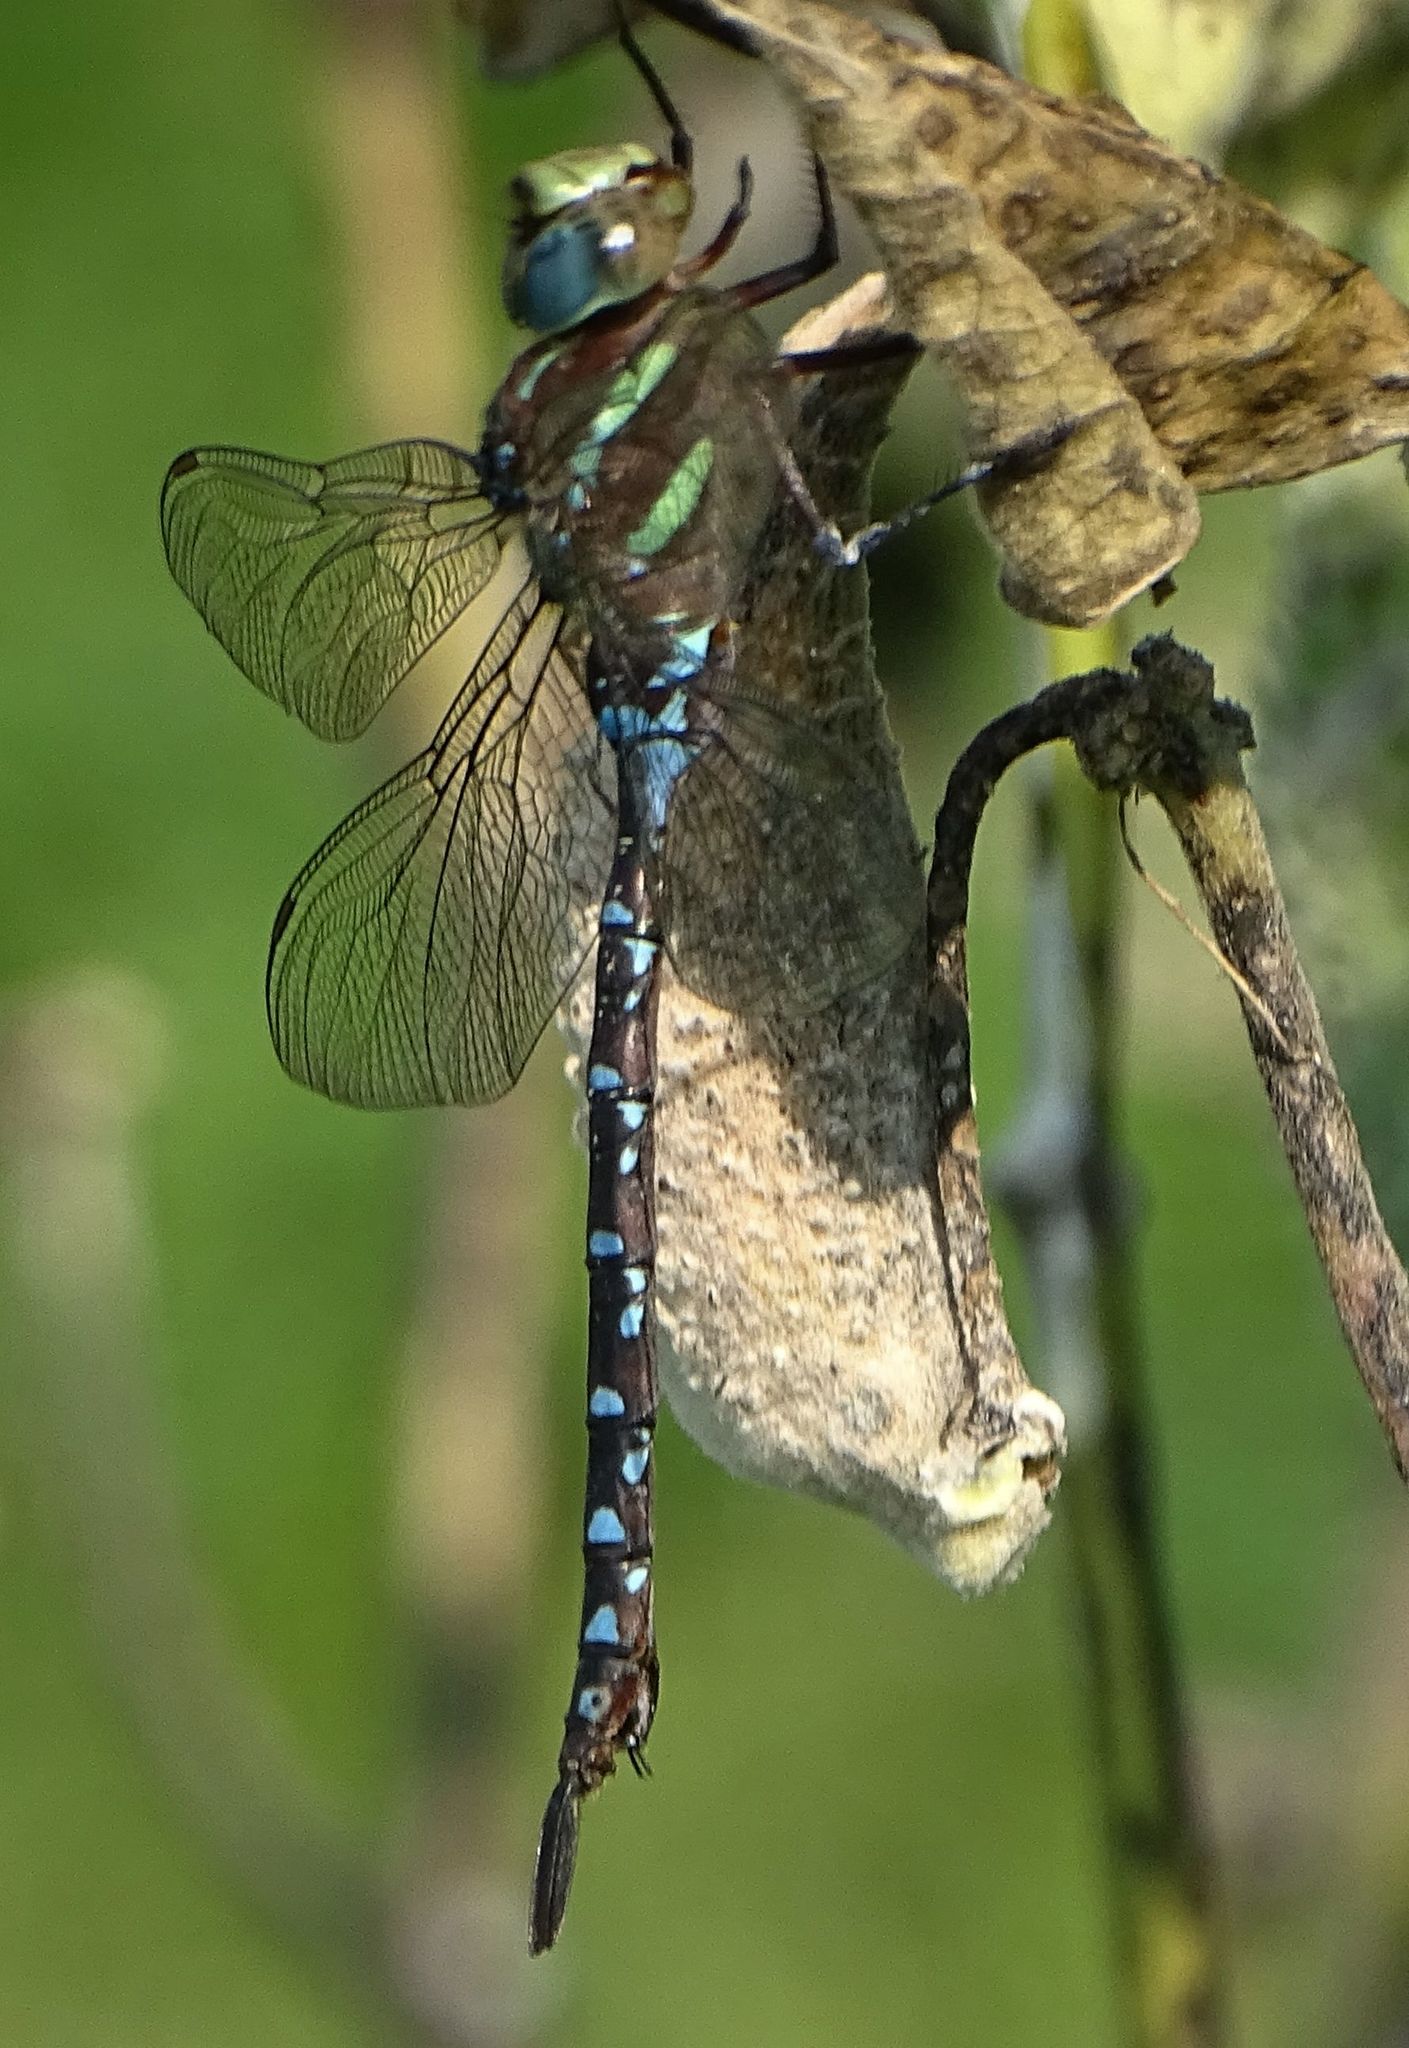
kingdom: Animalia
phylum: Arthropoda
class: Insecta
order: Odonata
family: Aeshnidae
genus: Aeshna
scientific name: Aeshna tuberculifera
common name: Aeschne à tubercules
